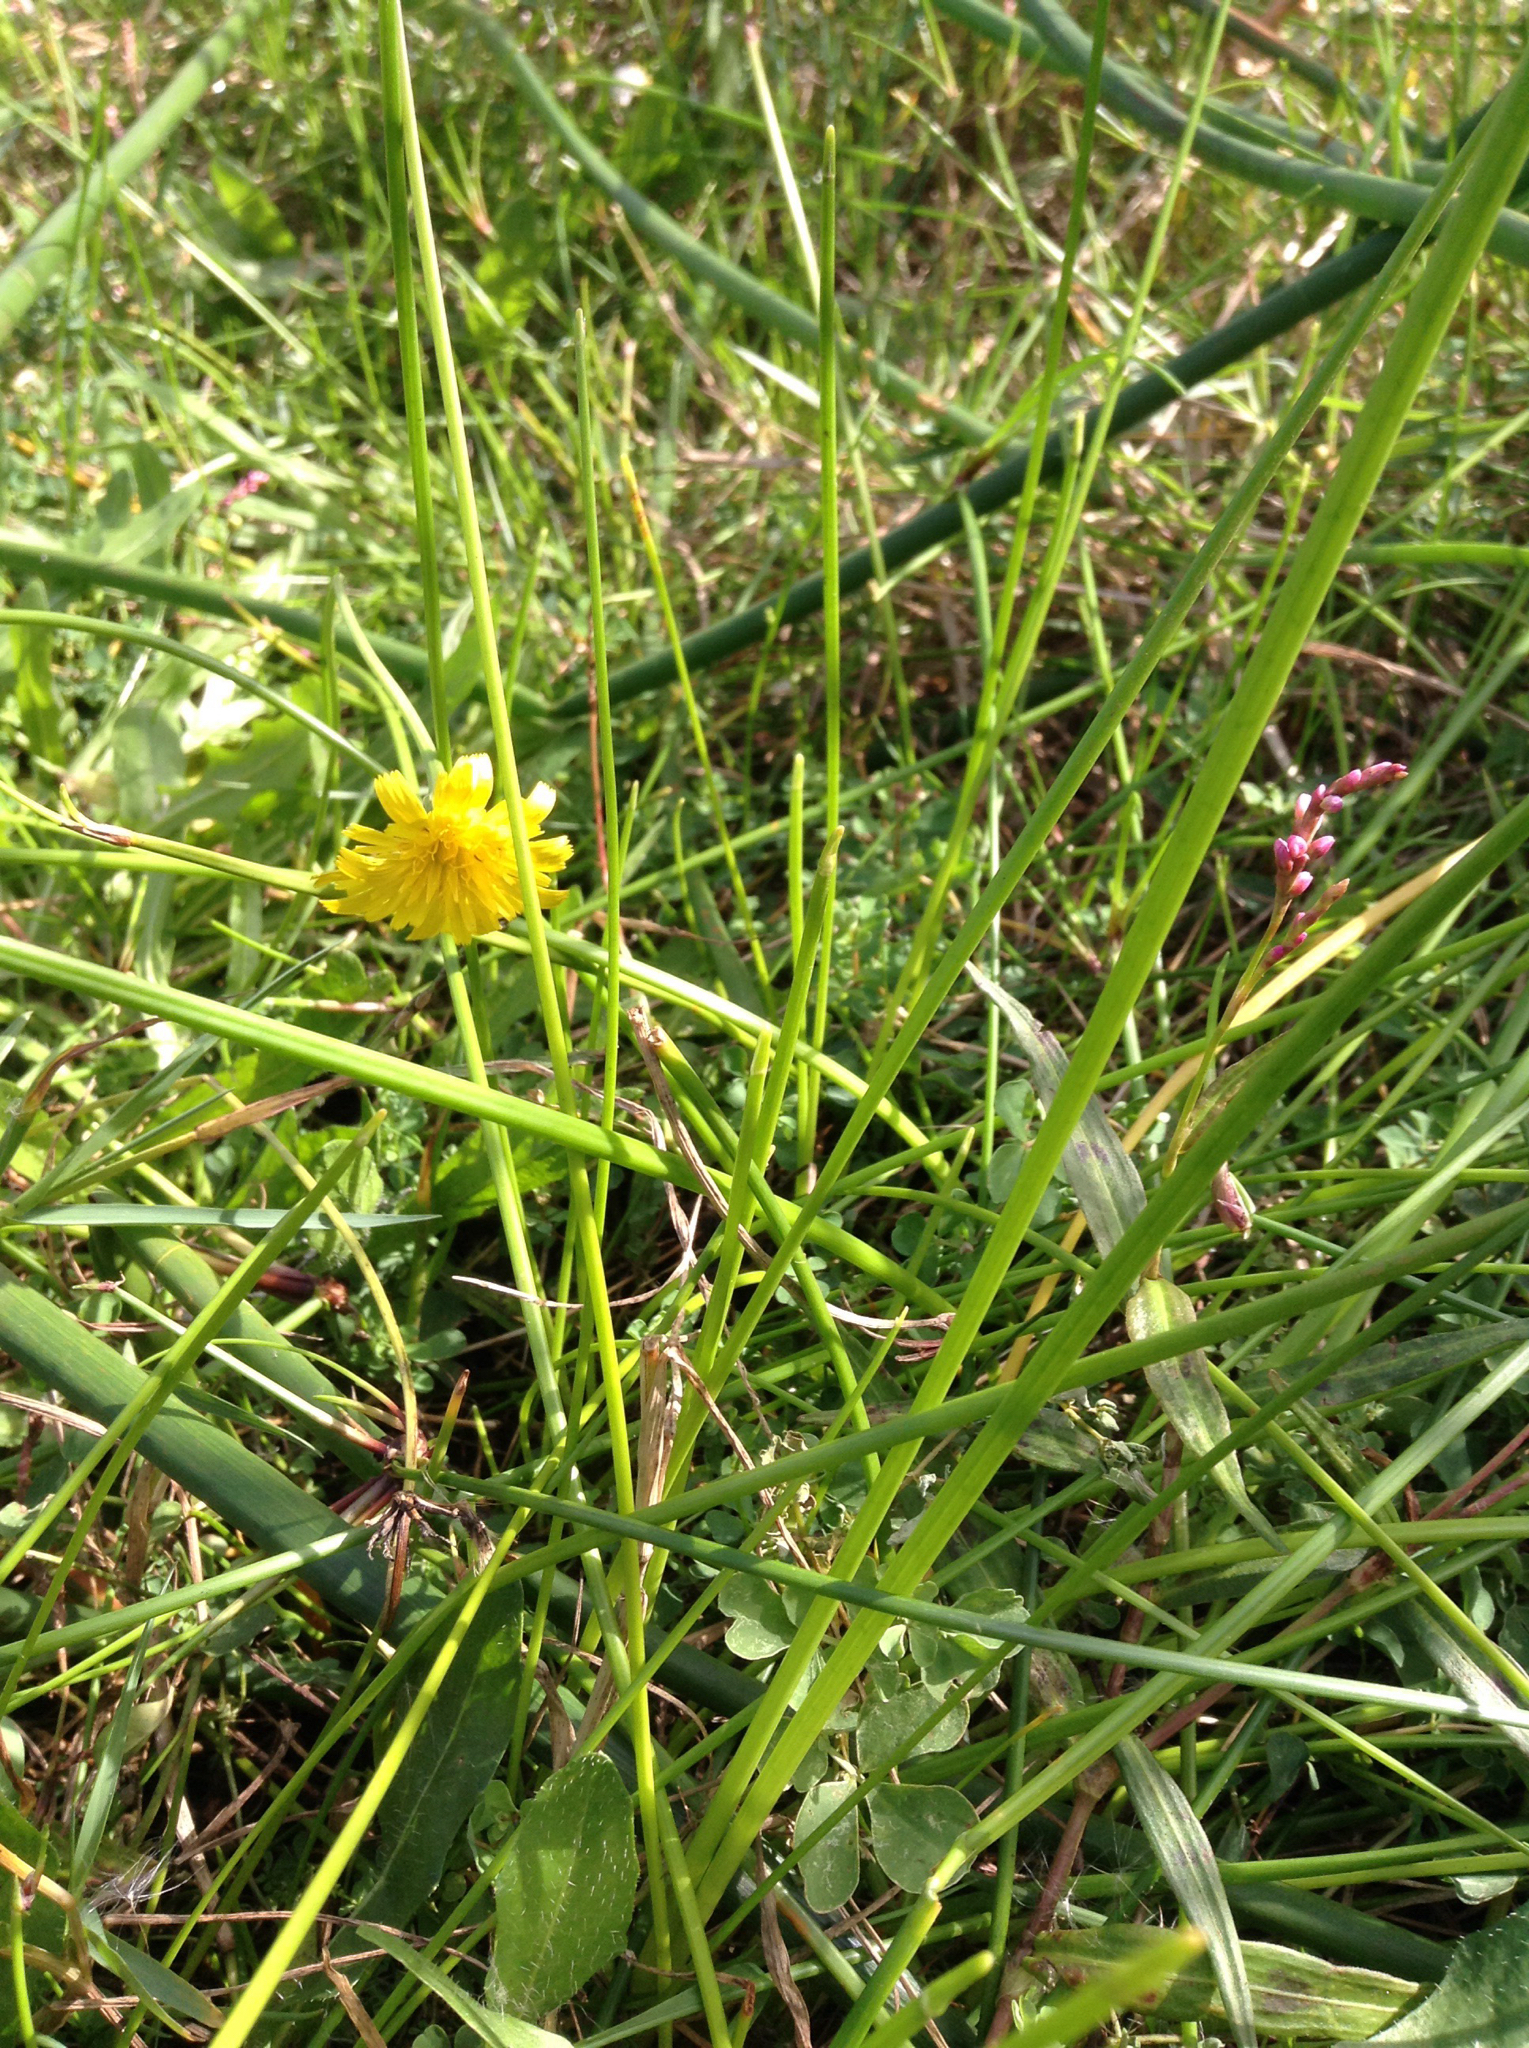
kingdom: Plantae
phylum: Tracheophyta
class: Magnoliopsida
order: Asterales
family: Asteraceae
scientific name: Asteraceae
